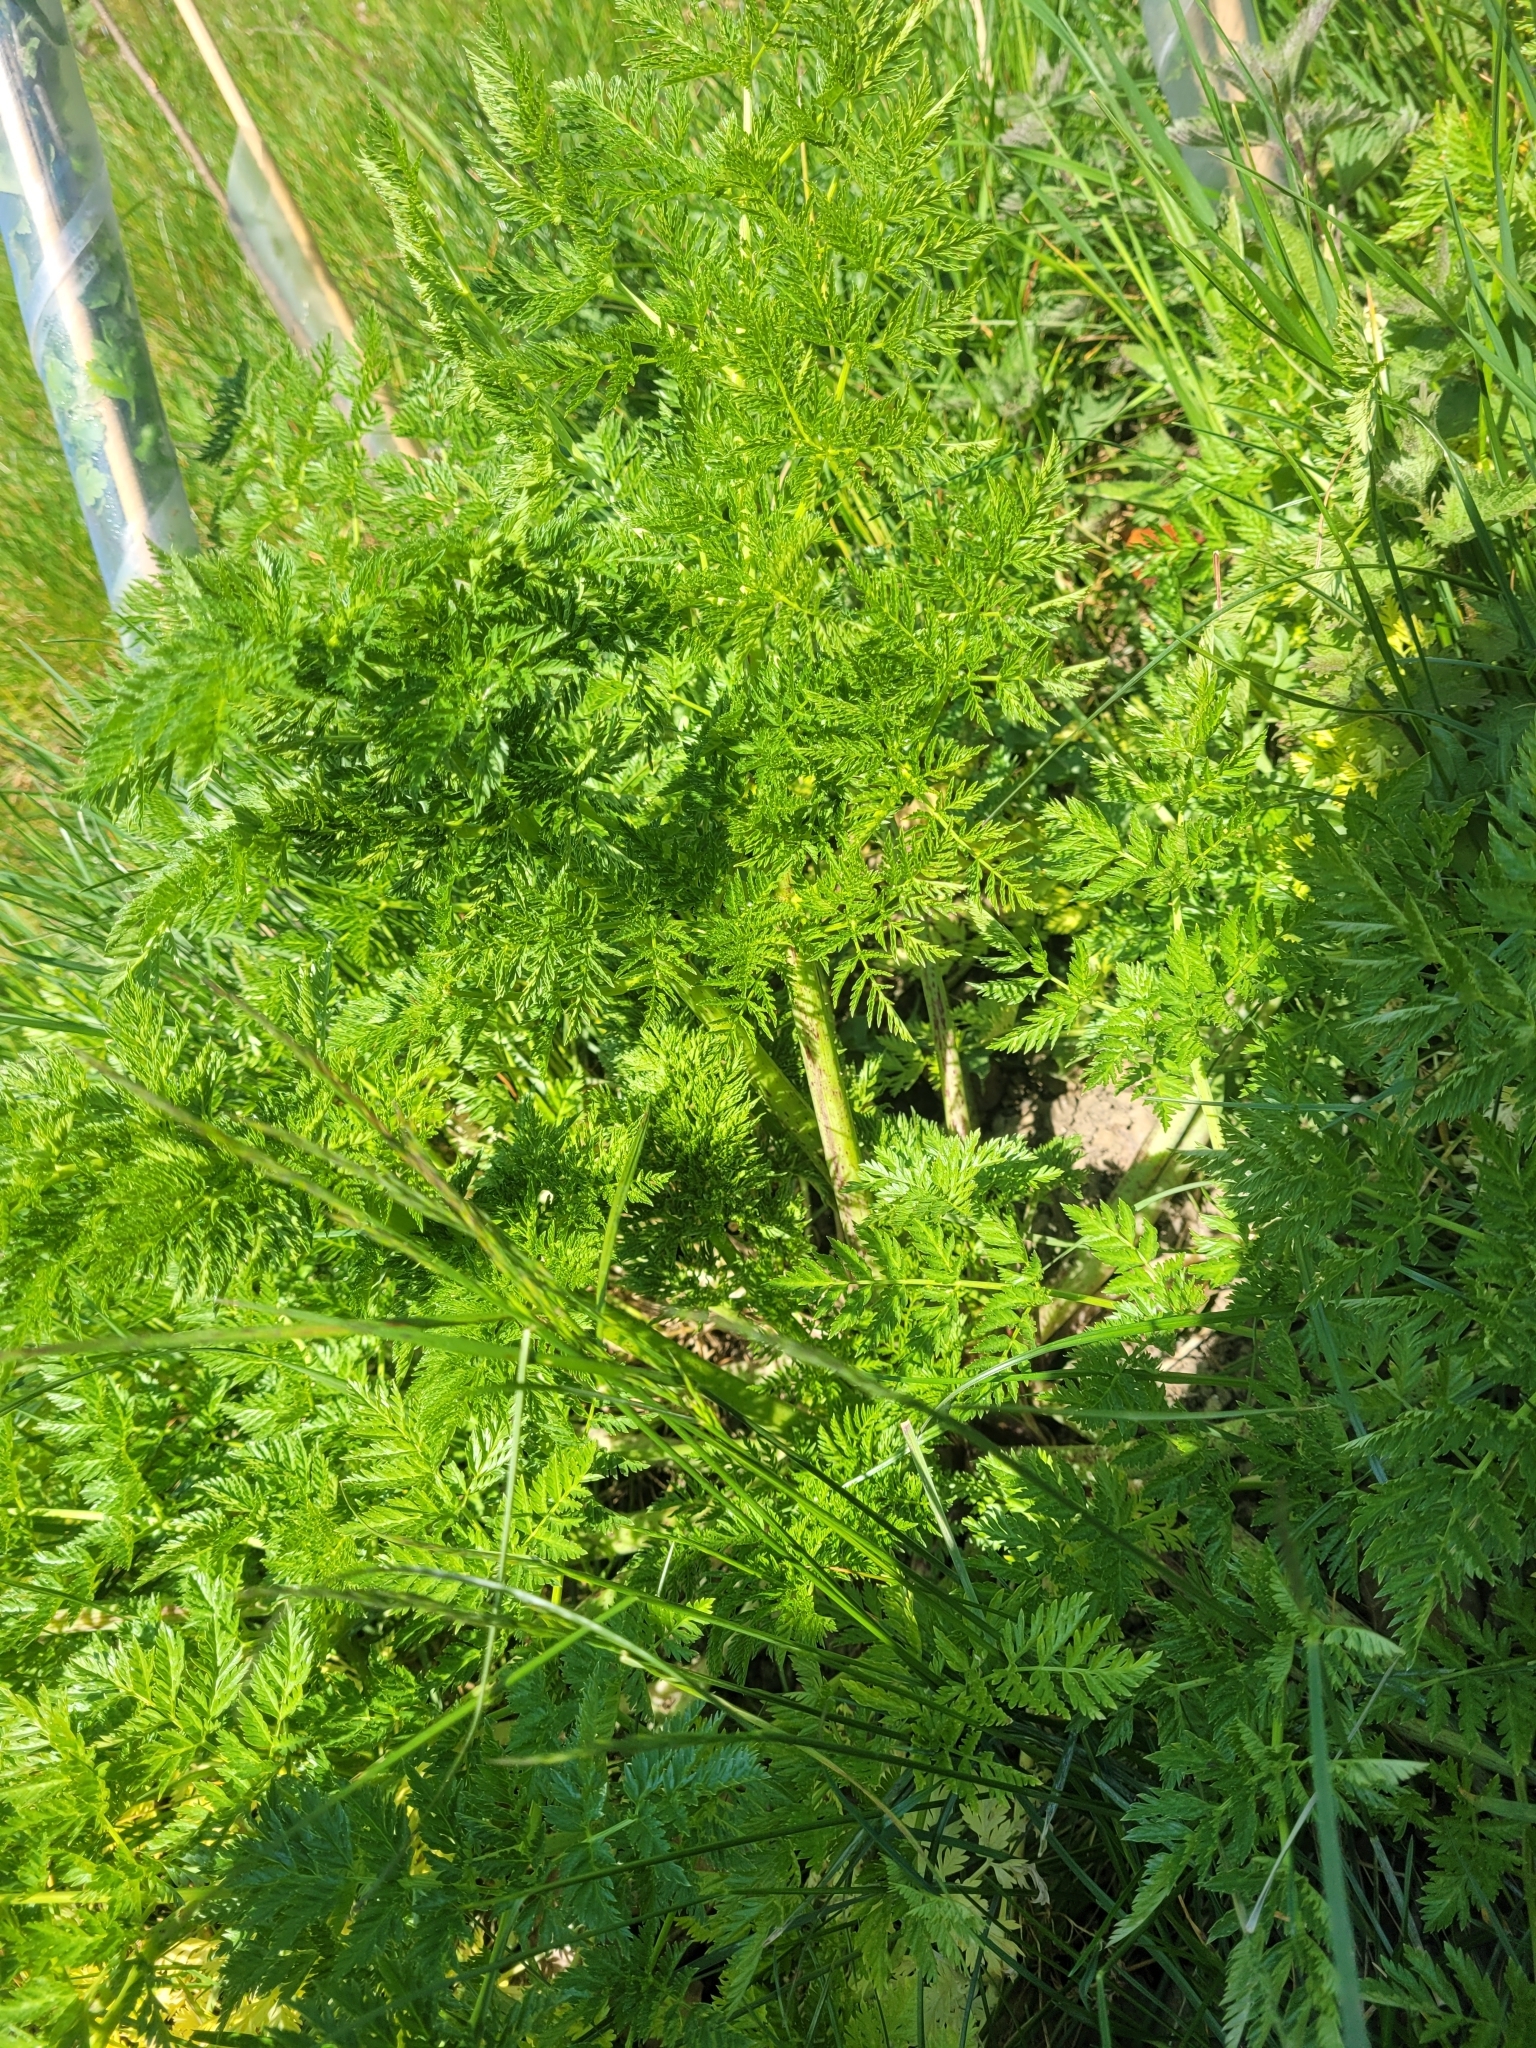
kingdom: Plantae
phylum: Tracheophyta
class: Magnoliopsida
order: Apiales
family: Apiaceae
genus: Conium
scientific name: Conium maculatum
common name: Hemlock
